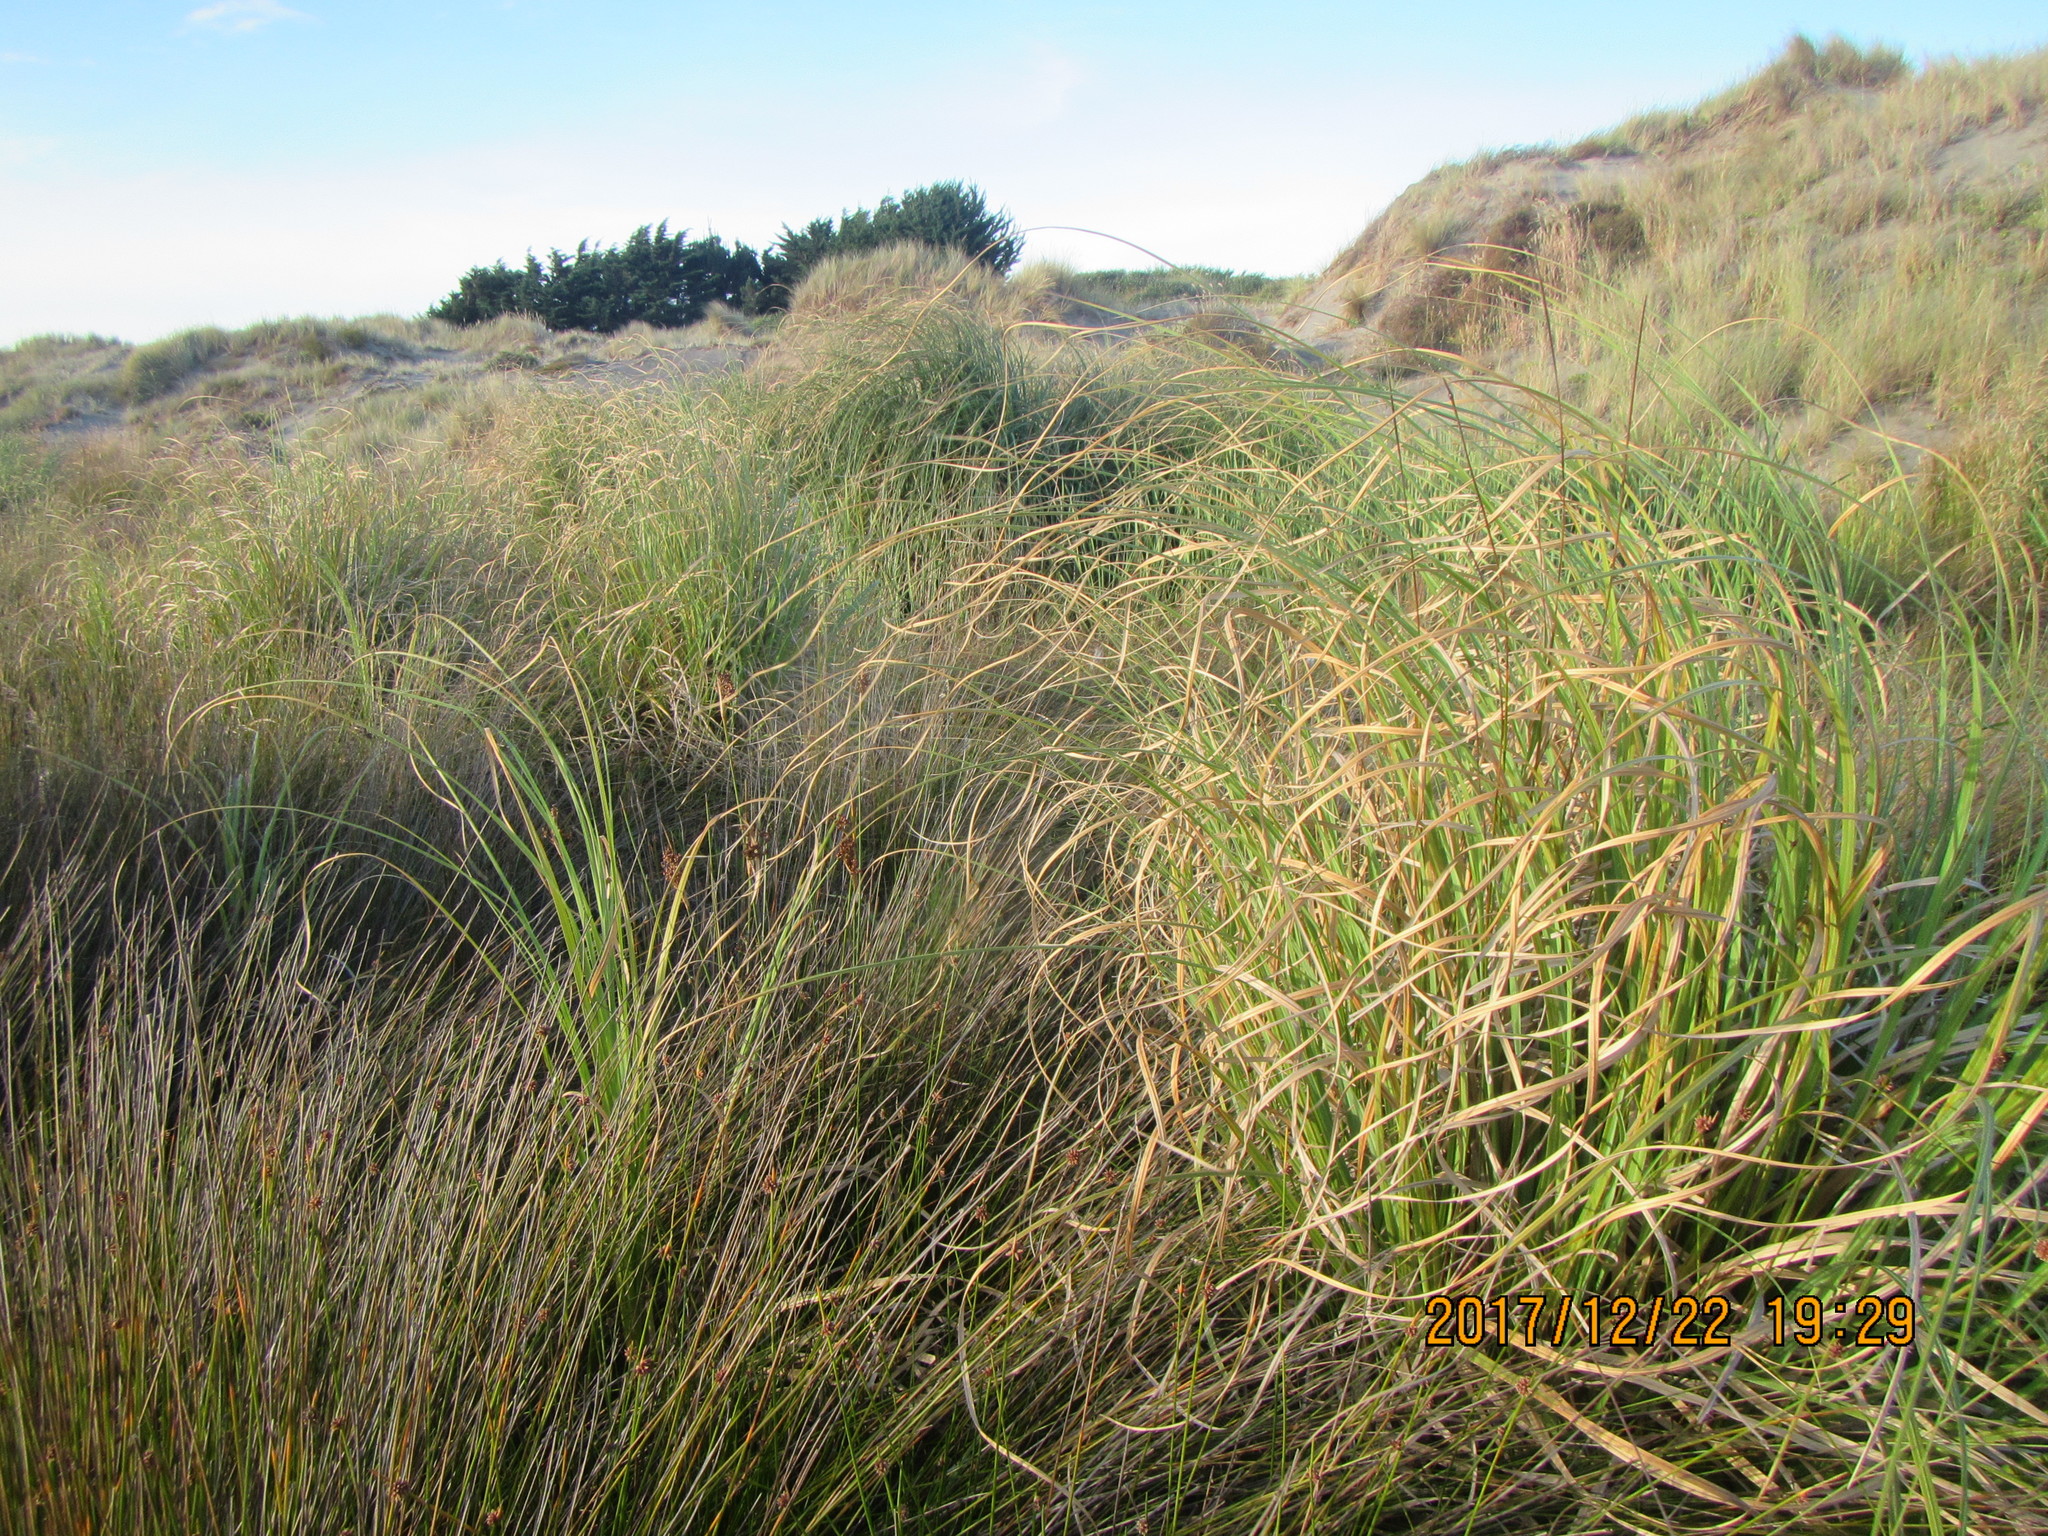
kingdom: Plantae
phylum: Tracheophyta
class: Liliopsida
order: Poales
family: Poaceae
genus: Cortaderia
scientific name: Cortaderia selloana
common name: Uruguayan pampas grass
